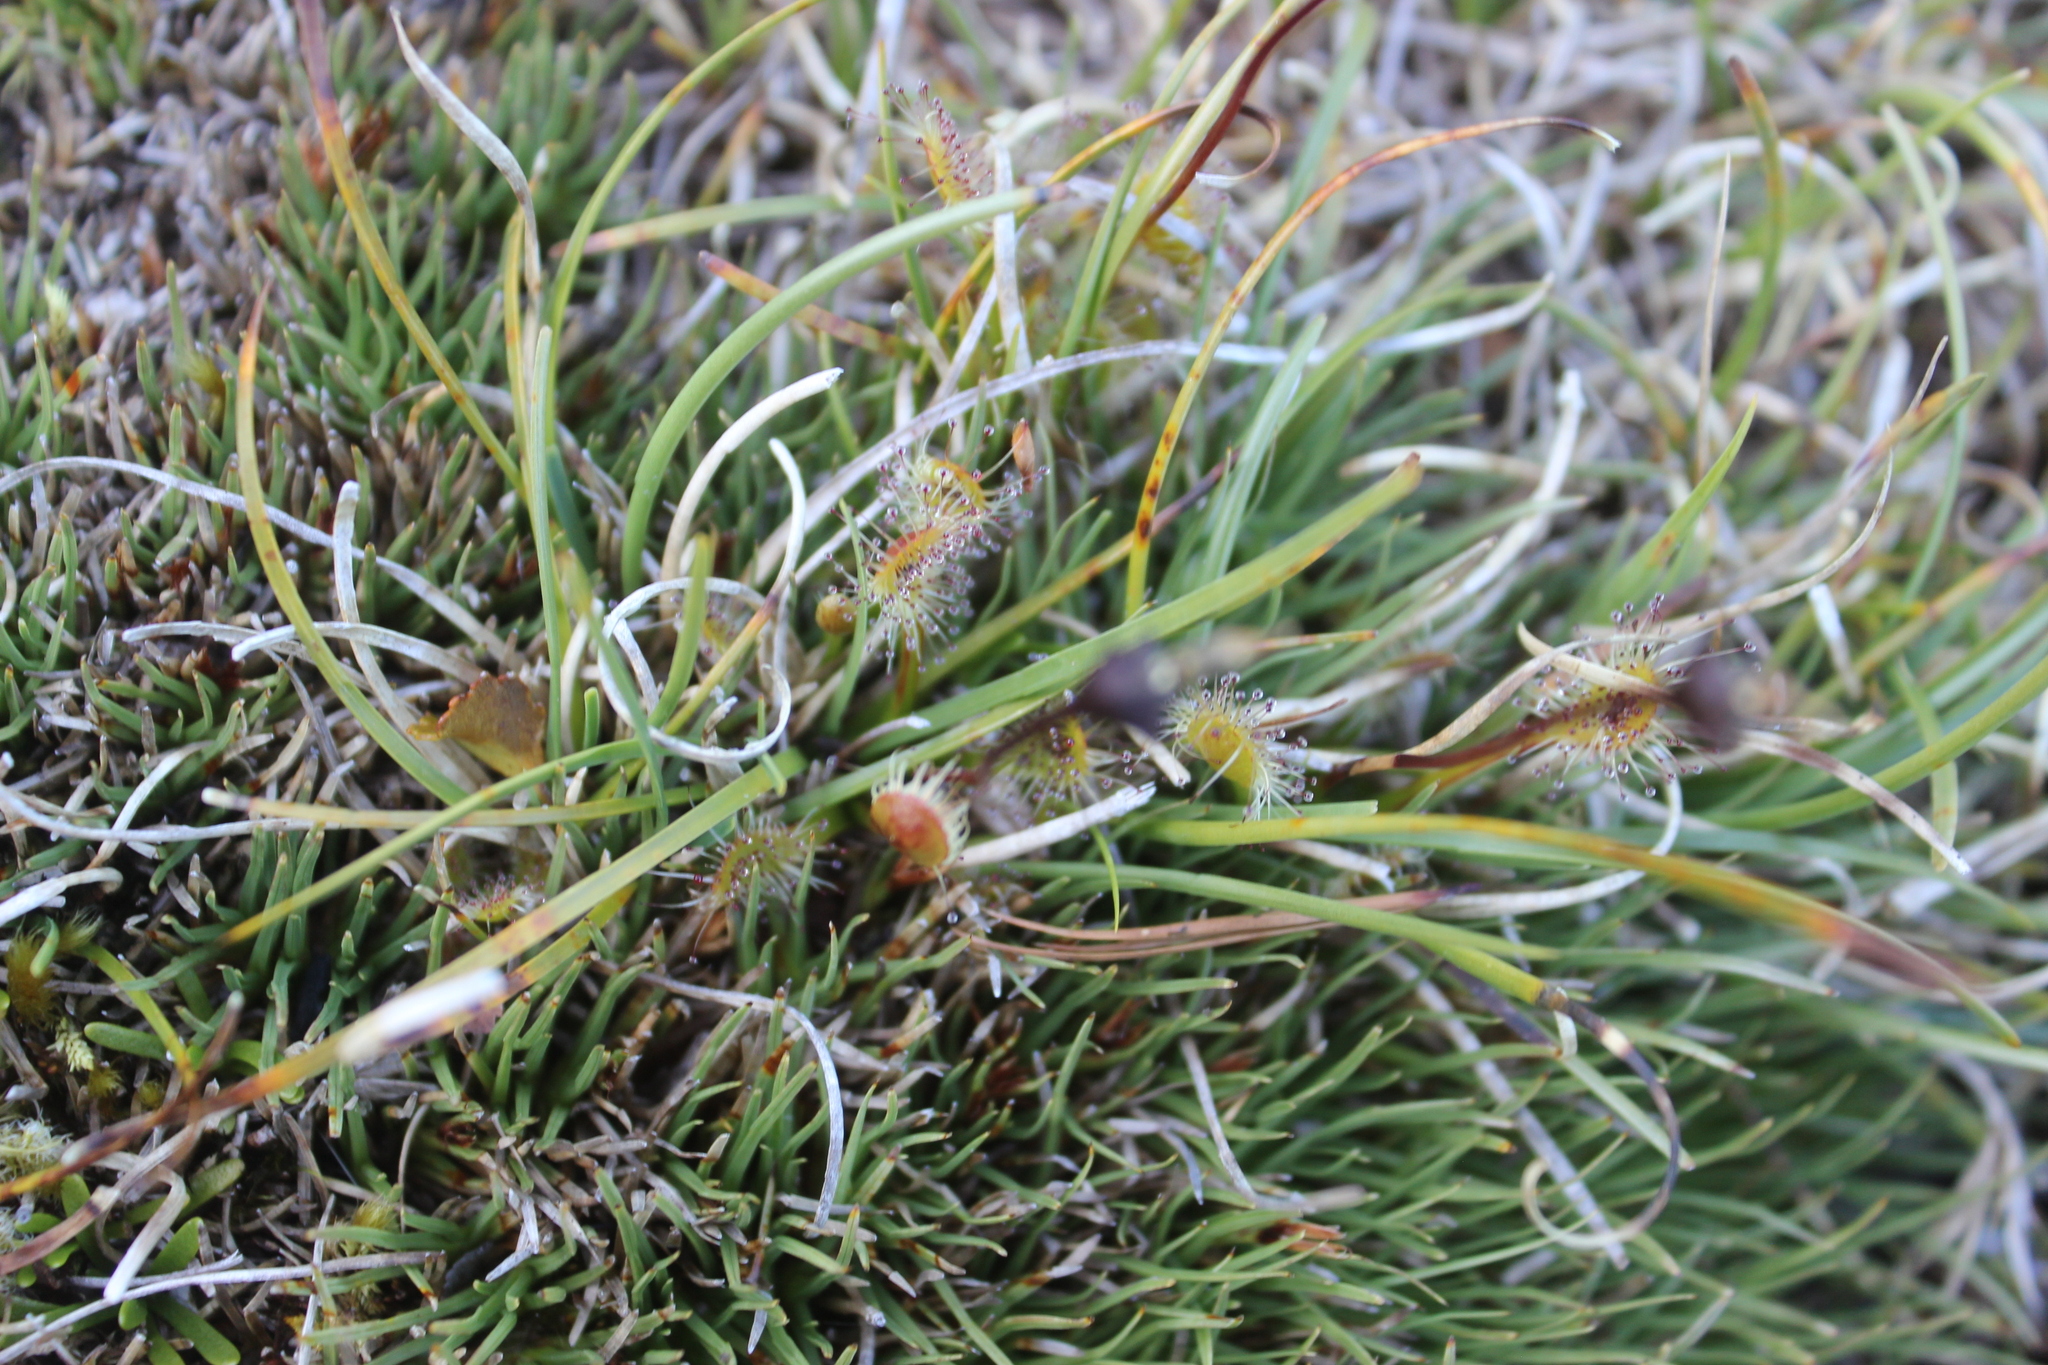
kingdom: Plantae
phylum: Tracheophyta
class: Magnoliopsida
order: Caryophyllales
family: Droseraceae
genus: Drosera
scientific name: Drosera stenopetala
